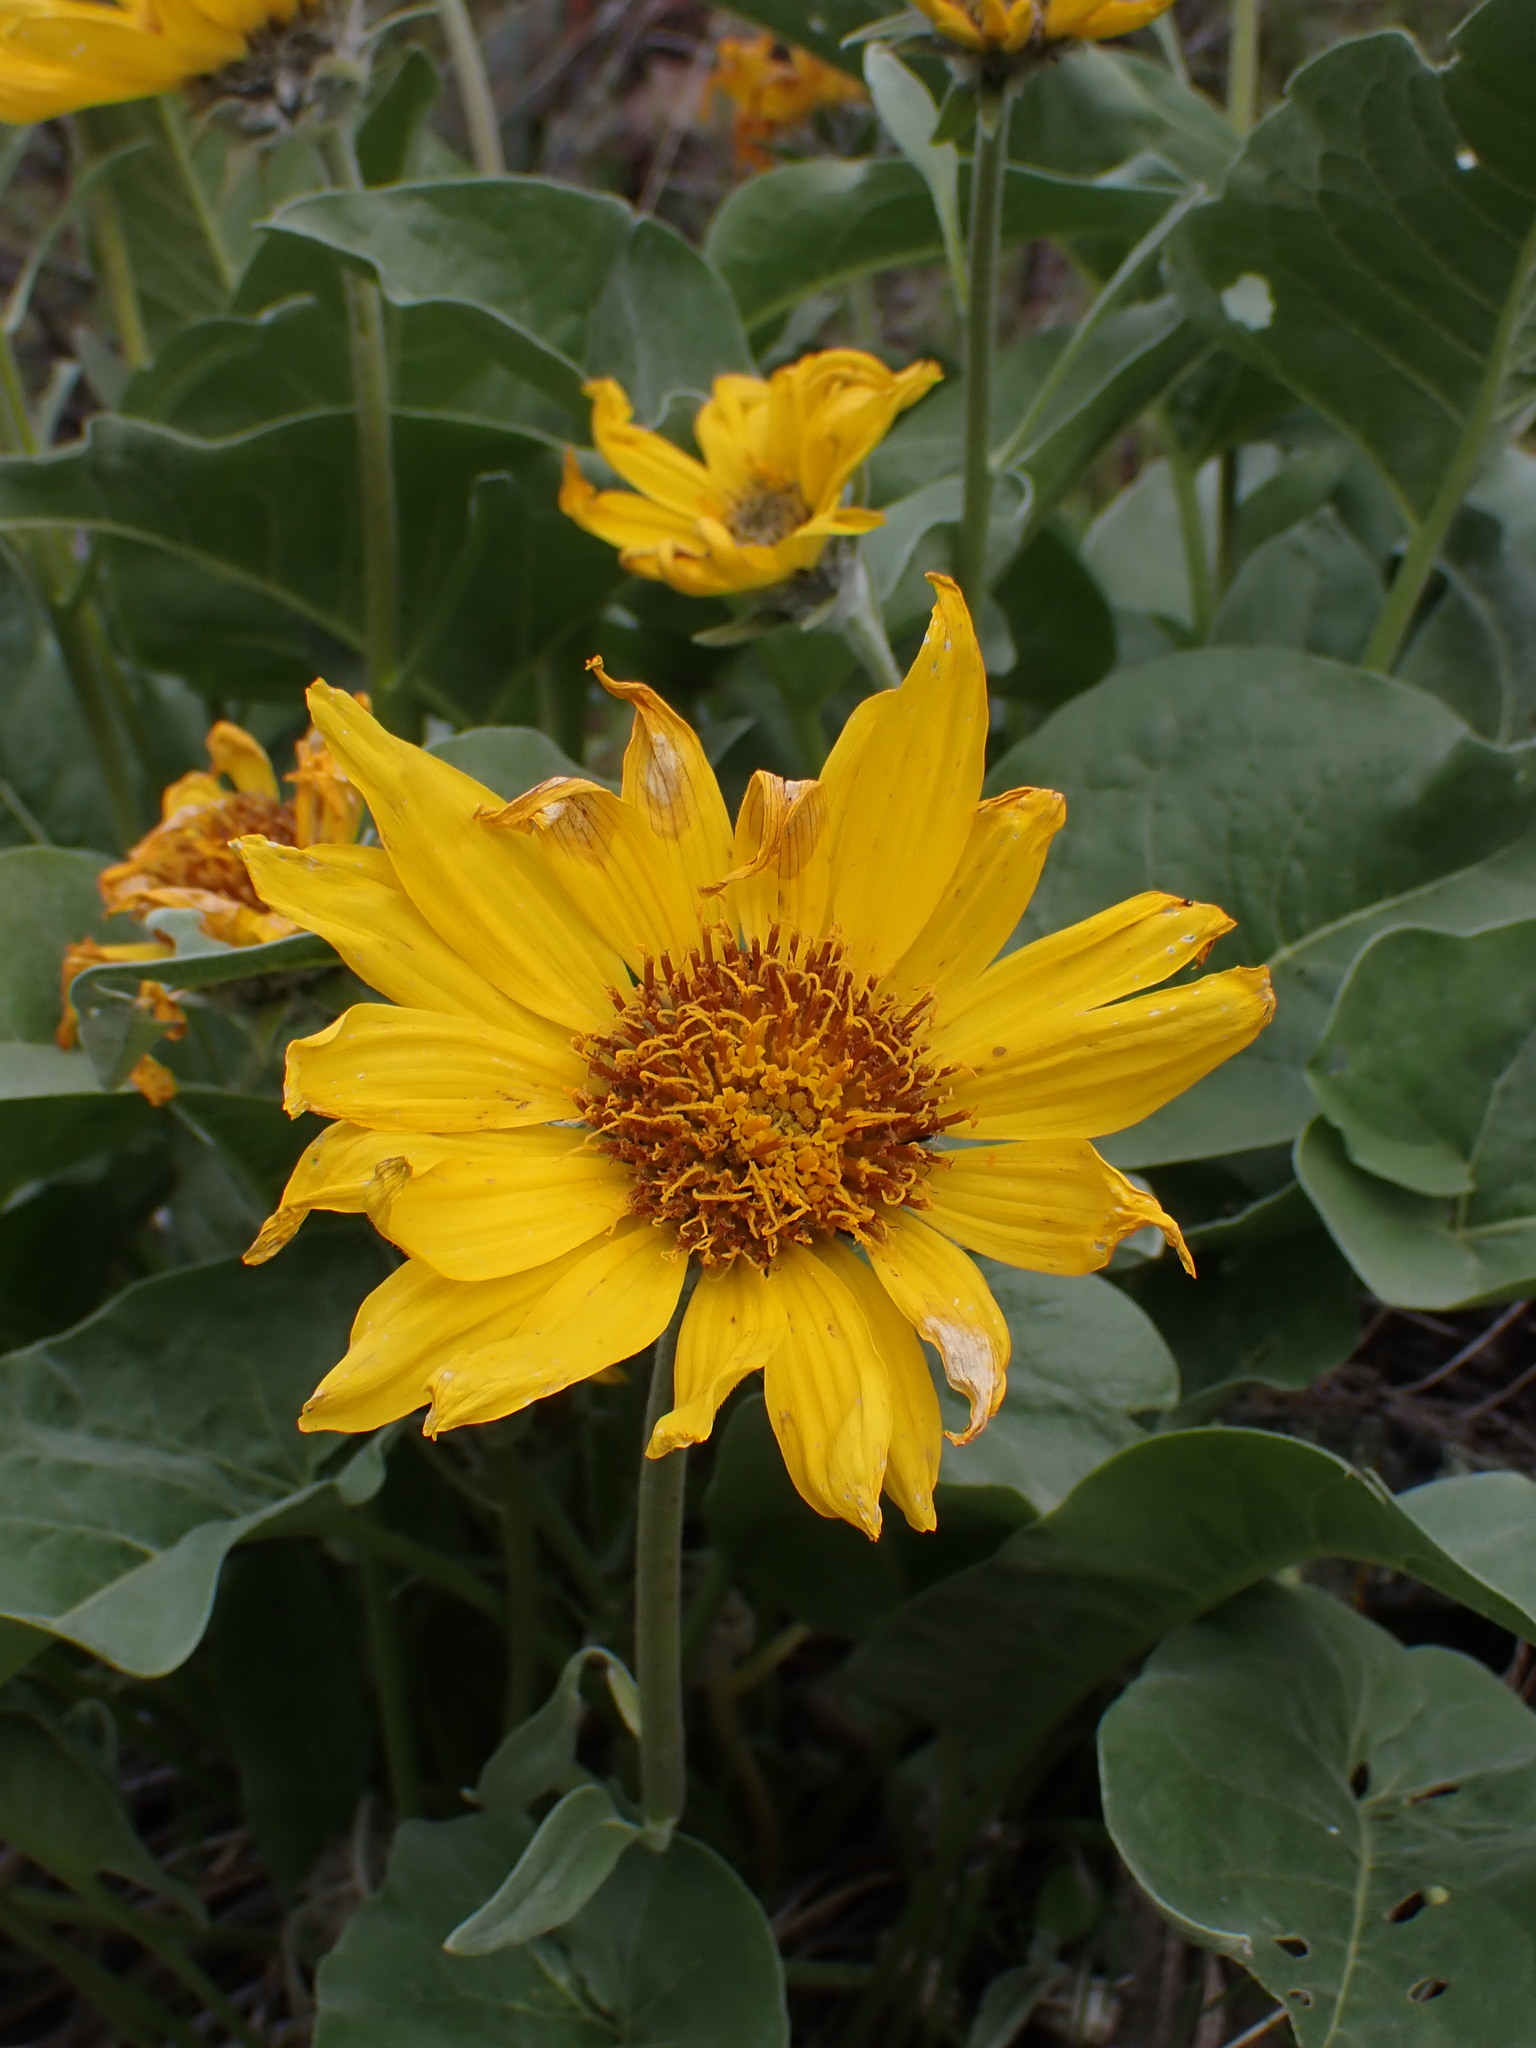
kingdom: Plantae
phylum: Tracheophyta
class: Magnoliopsida
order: Asterales
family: Asteraceae
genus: Wyethia
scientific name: Wyethia sagittata
